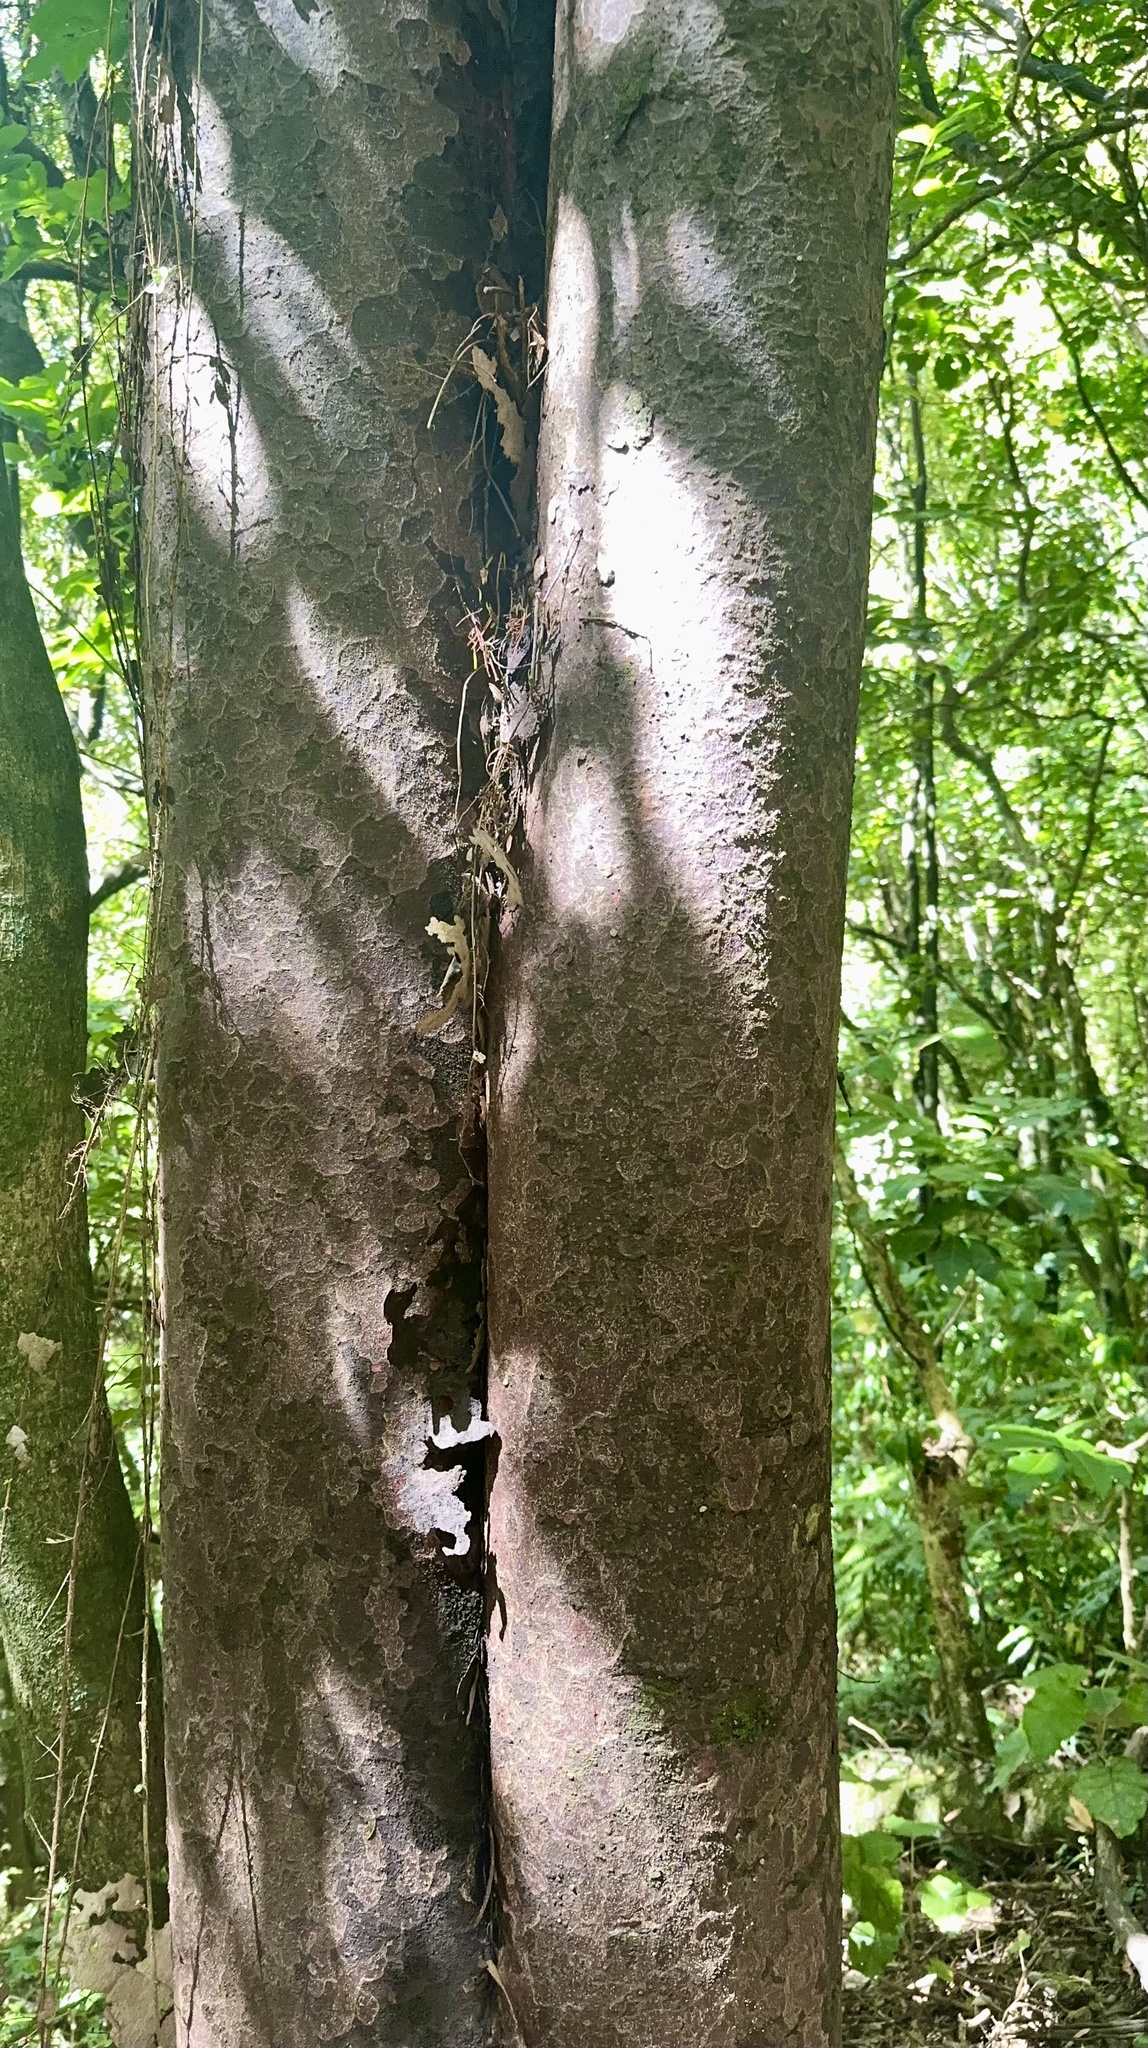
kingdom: Plantae
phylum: Tracheophyta
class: Pinopsida
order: Pinales
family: Podocarpaceae
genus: Prumnopitys
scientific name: Prumnopitys taxifolia
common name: Matai
